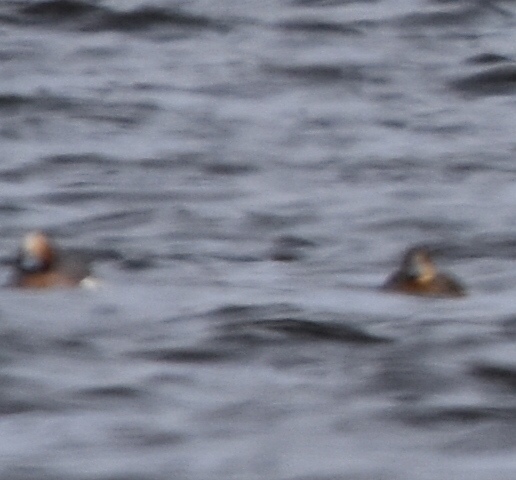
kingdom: Animalia
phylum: Chordata
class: Aves
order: Anseriformes
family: Anatidae
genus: Mareca
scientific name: Mareca penelope
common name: Eurasian wigeon
